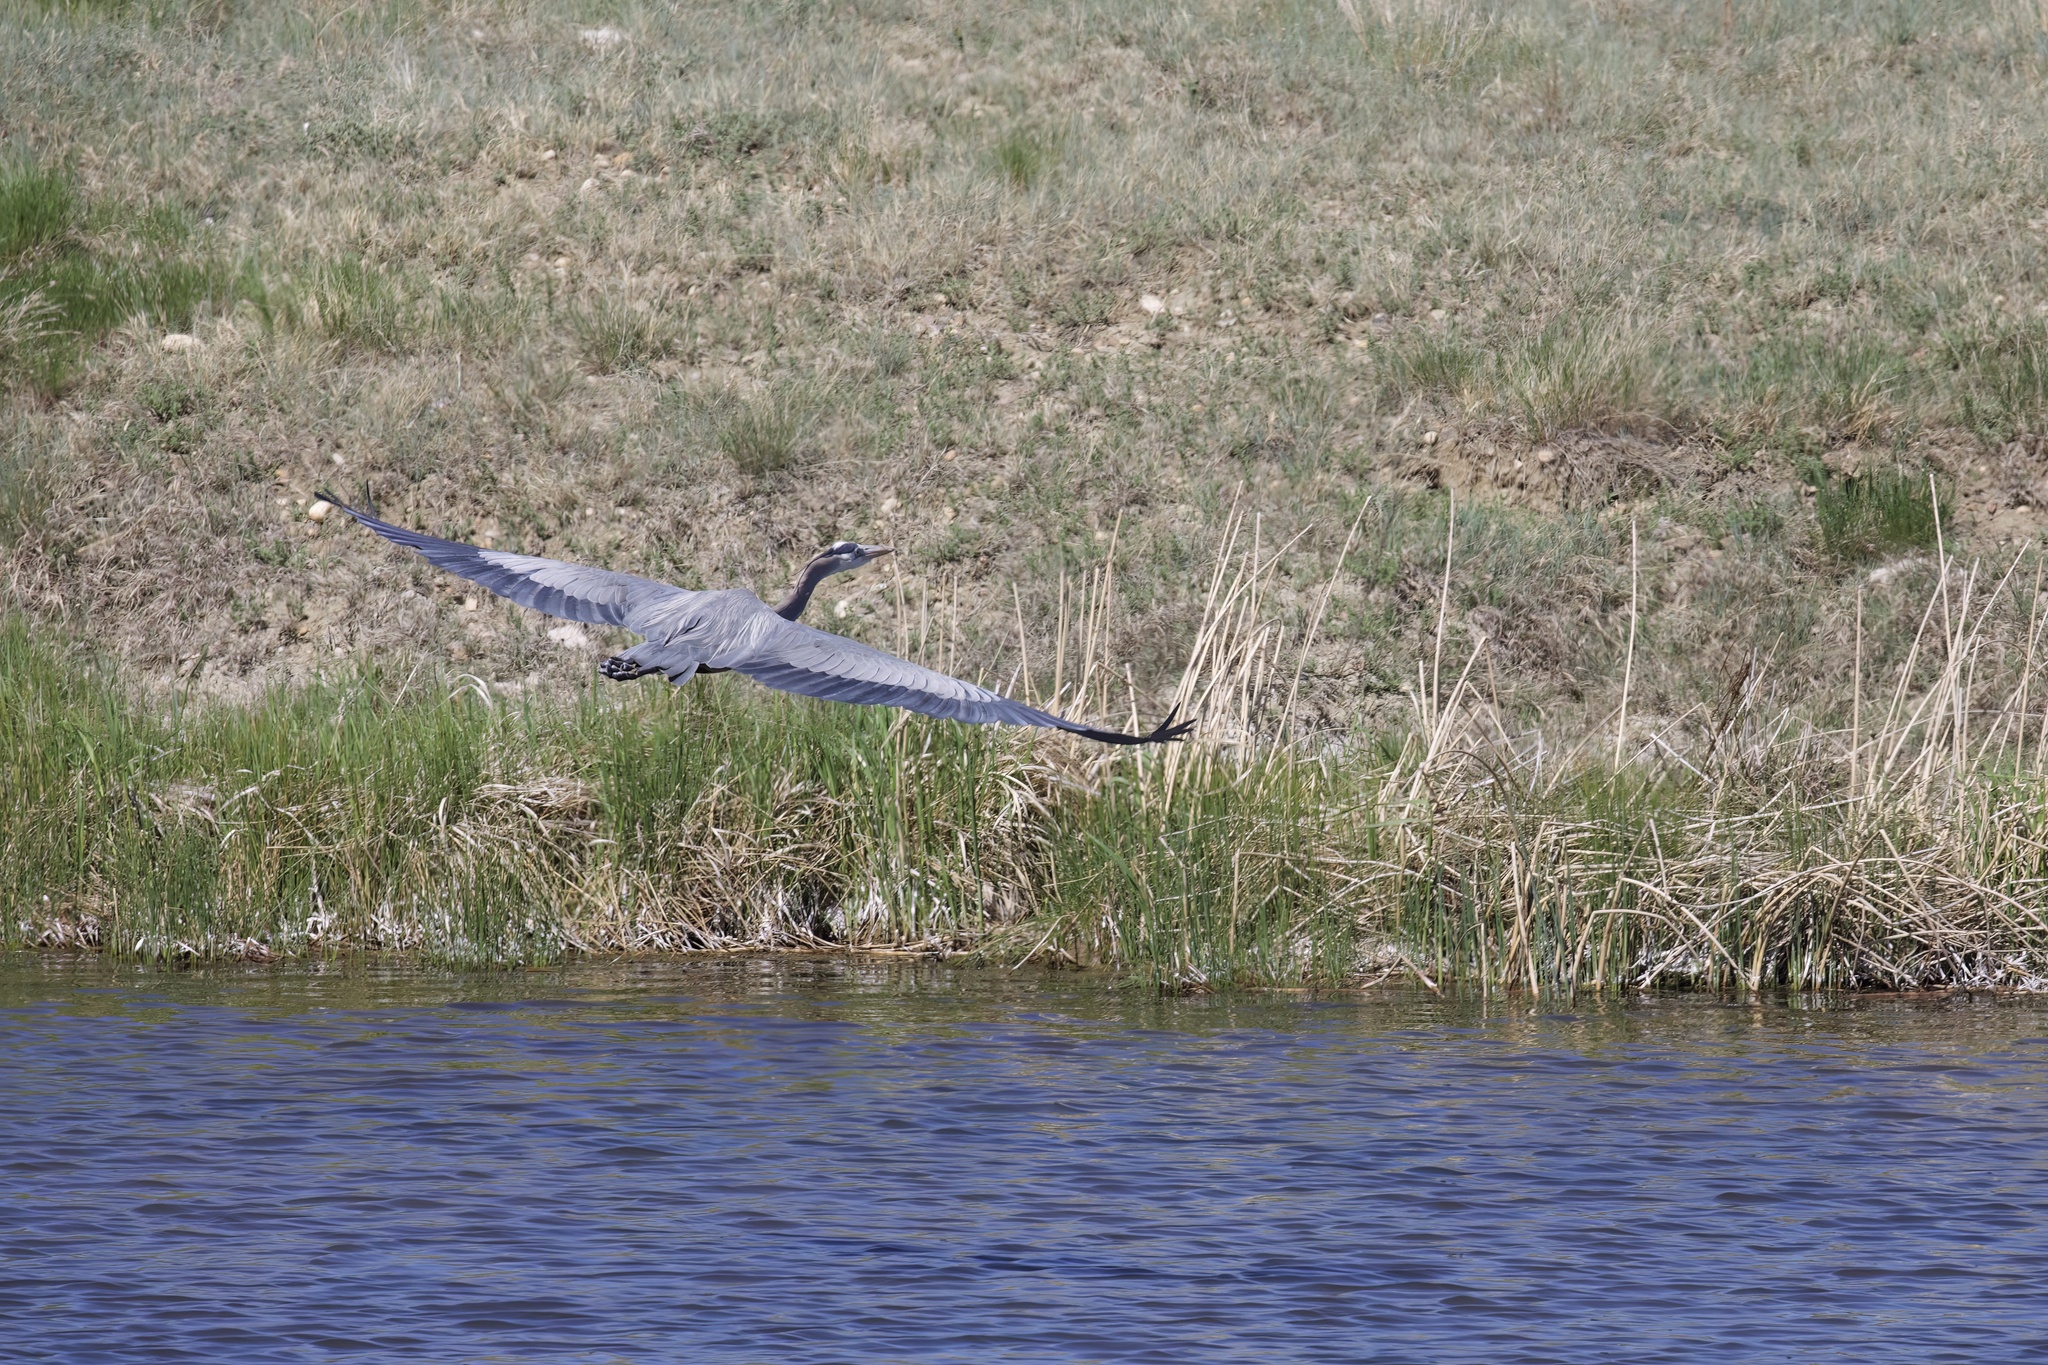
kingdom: Animalia
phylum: Chordata
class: Aves
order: Pelecaniformes
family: Ardeidae
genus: Ardea
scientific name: Ardea herodias
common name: Great blue heron
